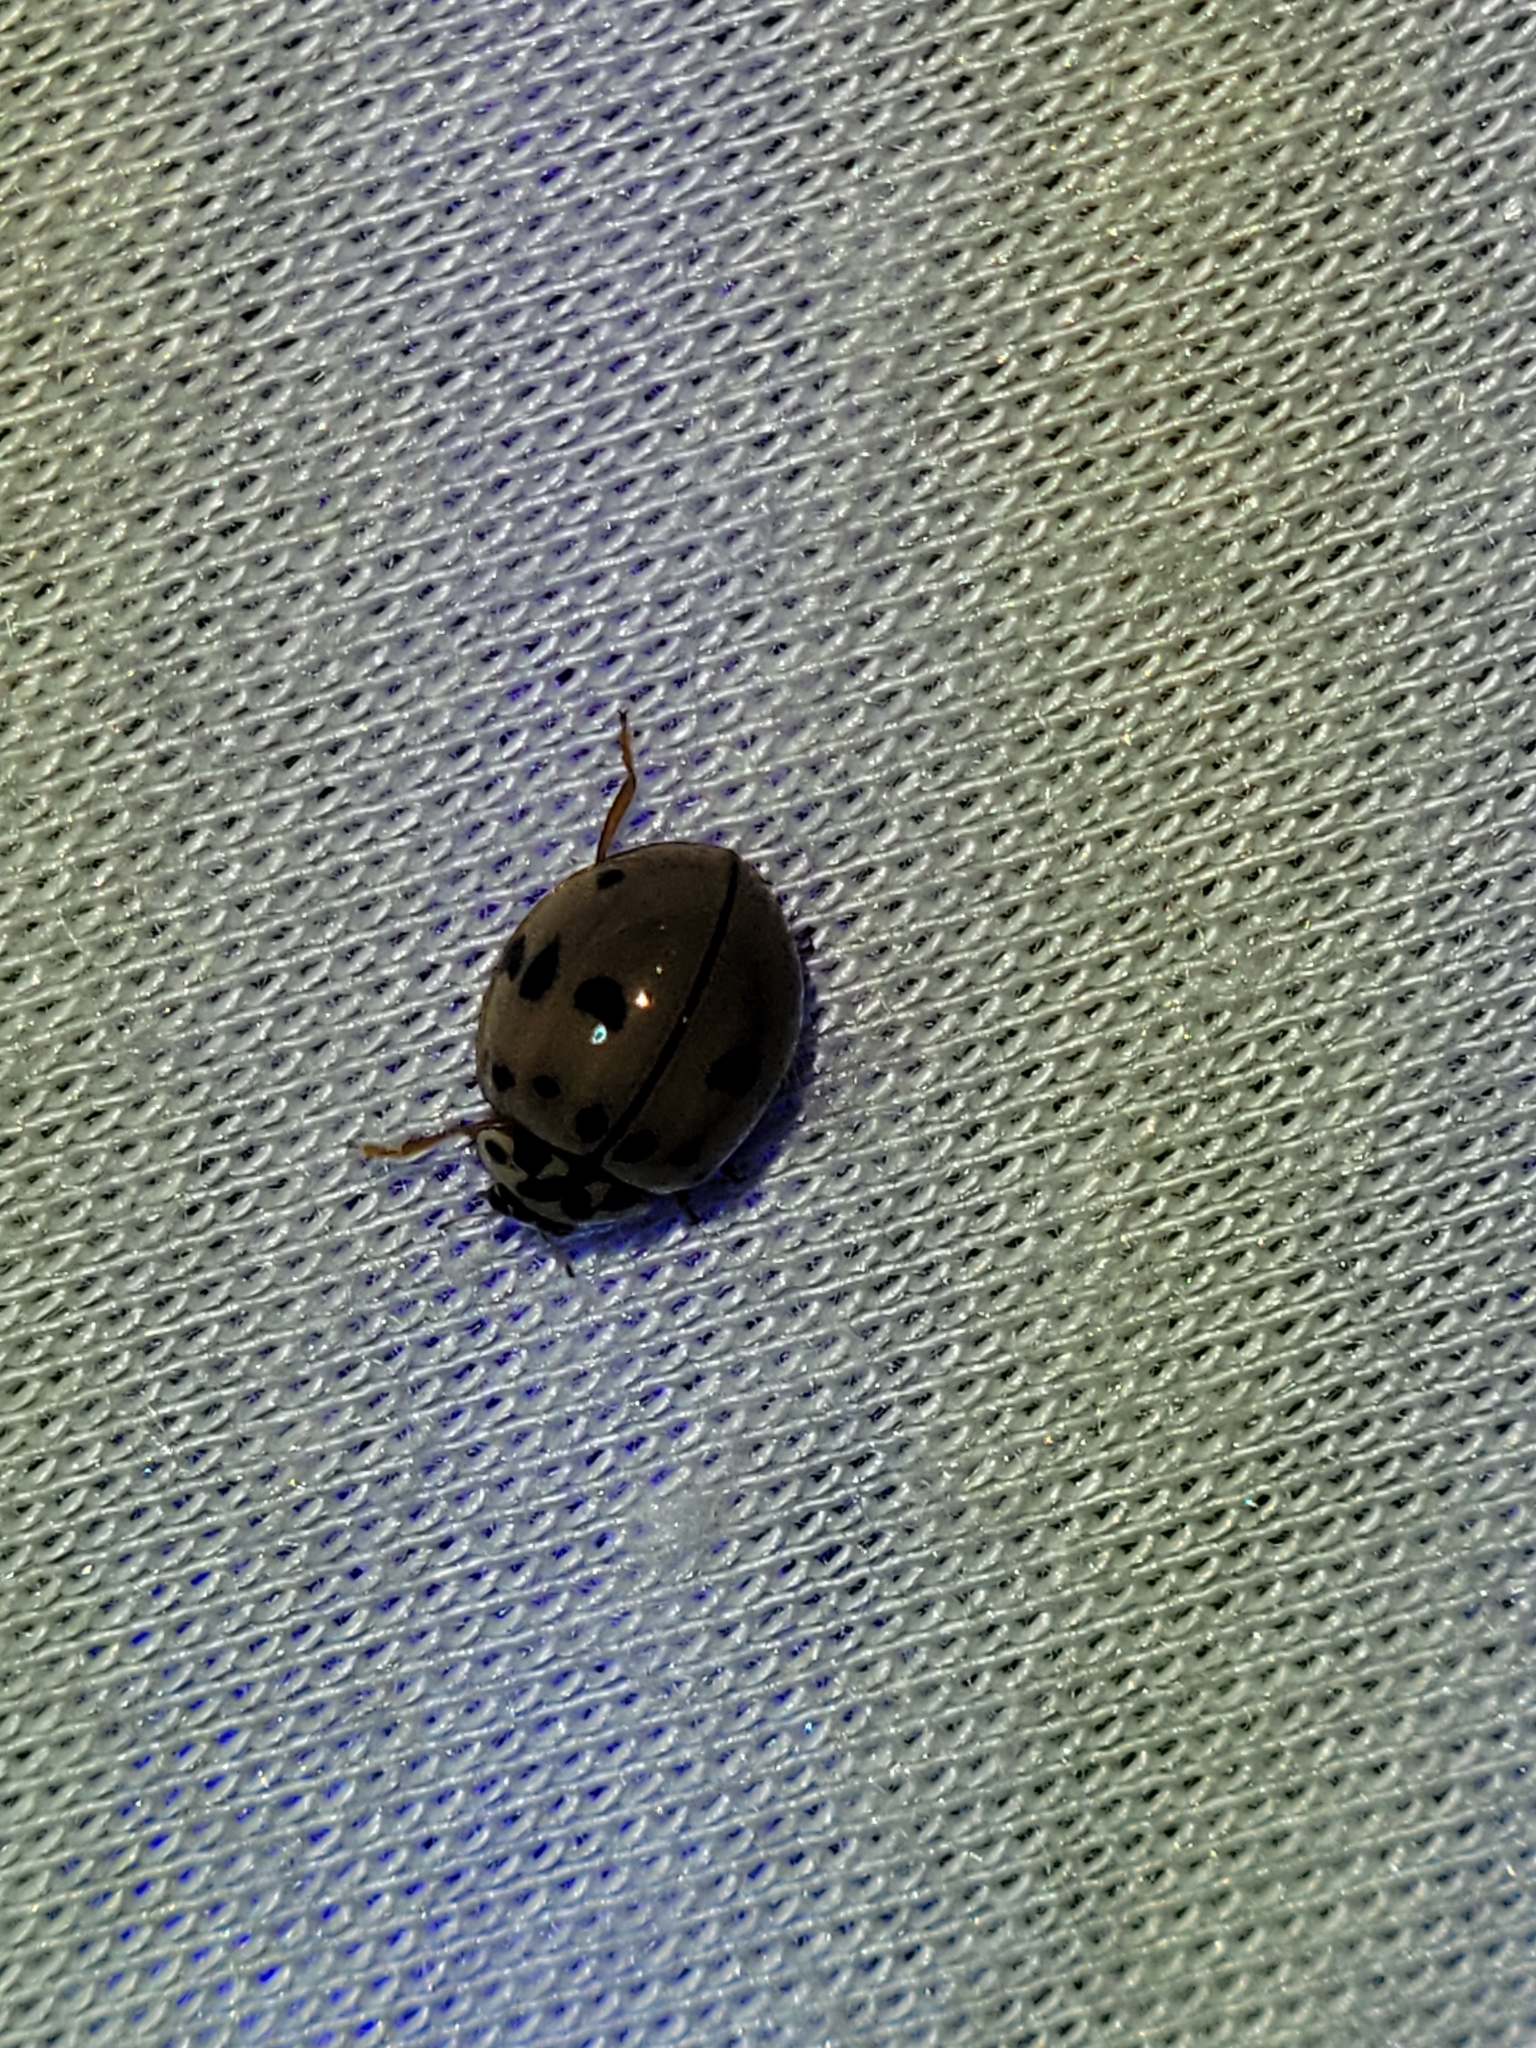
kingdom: Animalia
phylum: Arthropoda
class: Insecta
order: Coleoptera
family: Coccinellidae
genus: Olla
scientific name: Olla v-nigrum
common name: Ashy gray lady beetle
